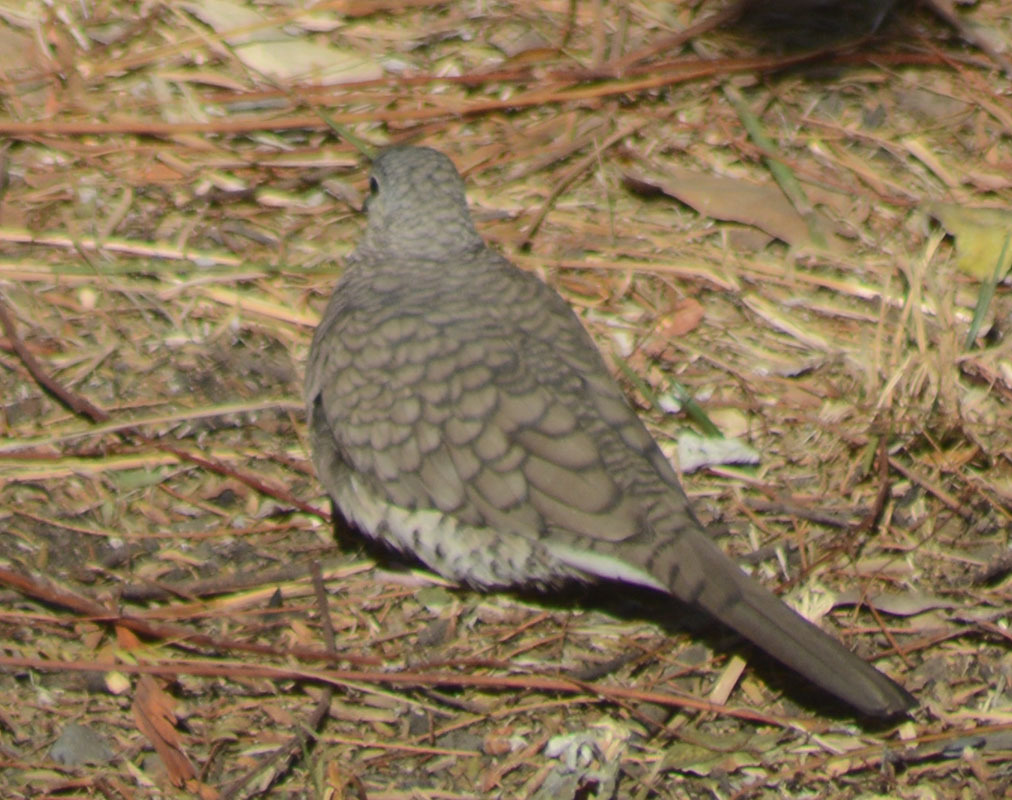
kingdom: Animalia
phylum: Chordata
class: Aves
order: Columbiformes
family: Columbidae
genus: Columbina
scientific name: Columbina inca
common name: Inca dove
